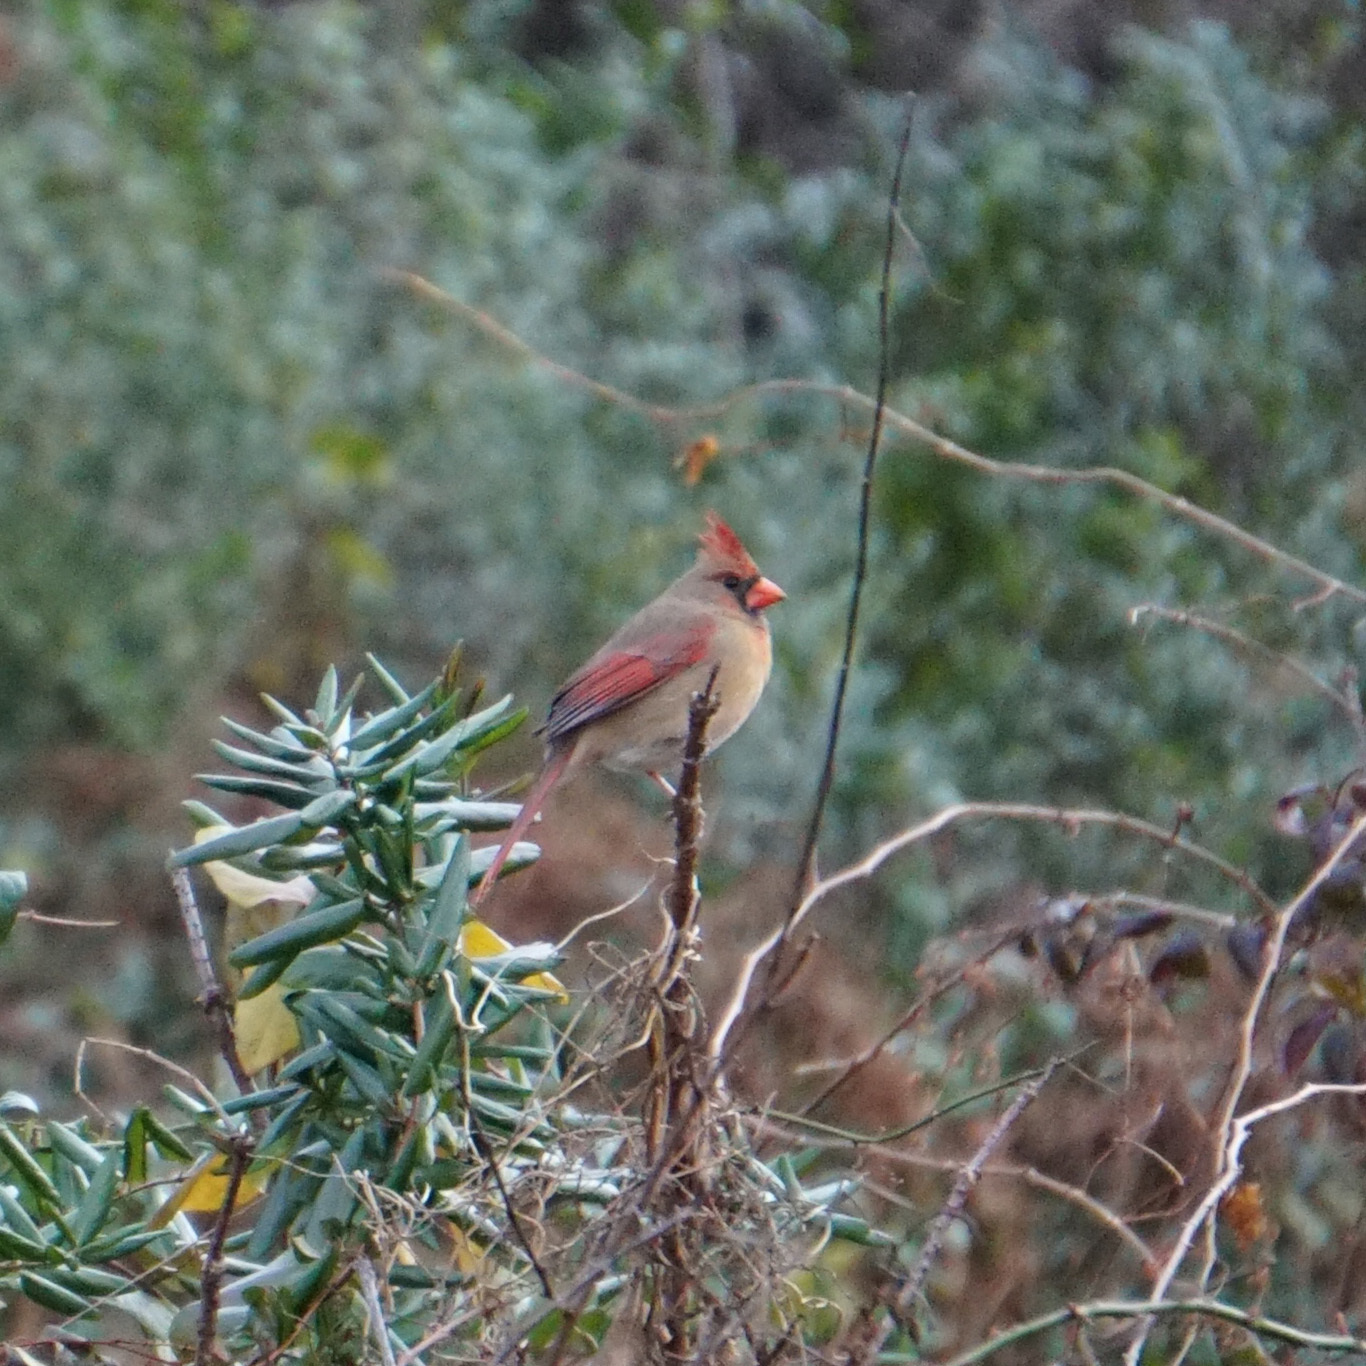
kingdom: Animalia
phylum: Chordata
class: Aves
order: Passeriformes
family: Cardinalidae
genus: Cardinalis
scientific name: Cardinalis cardinalis
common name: Northern cardinal
